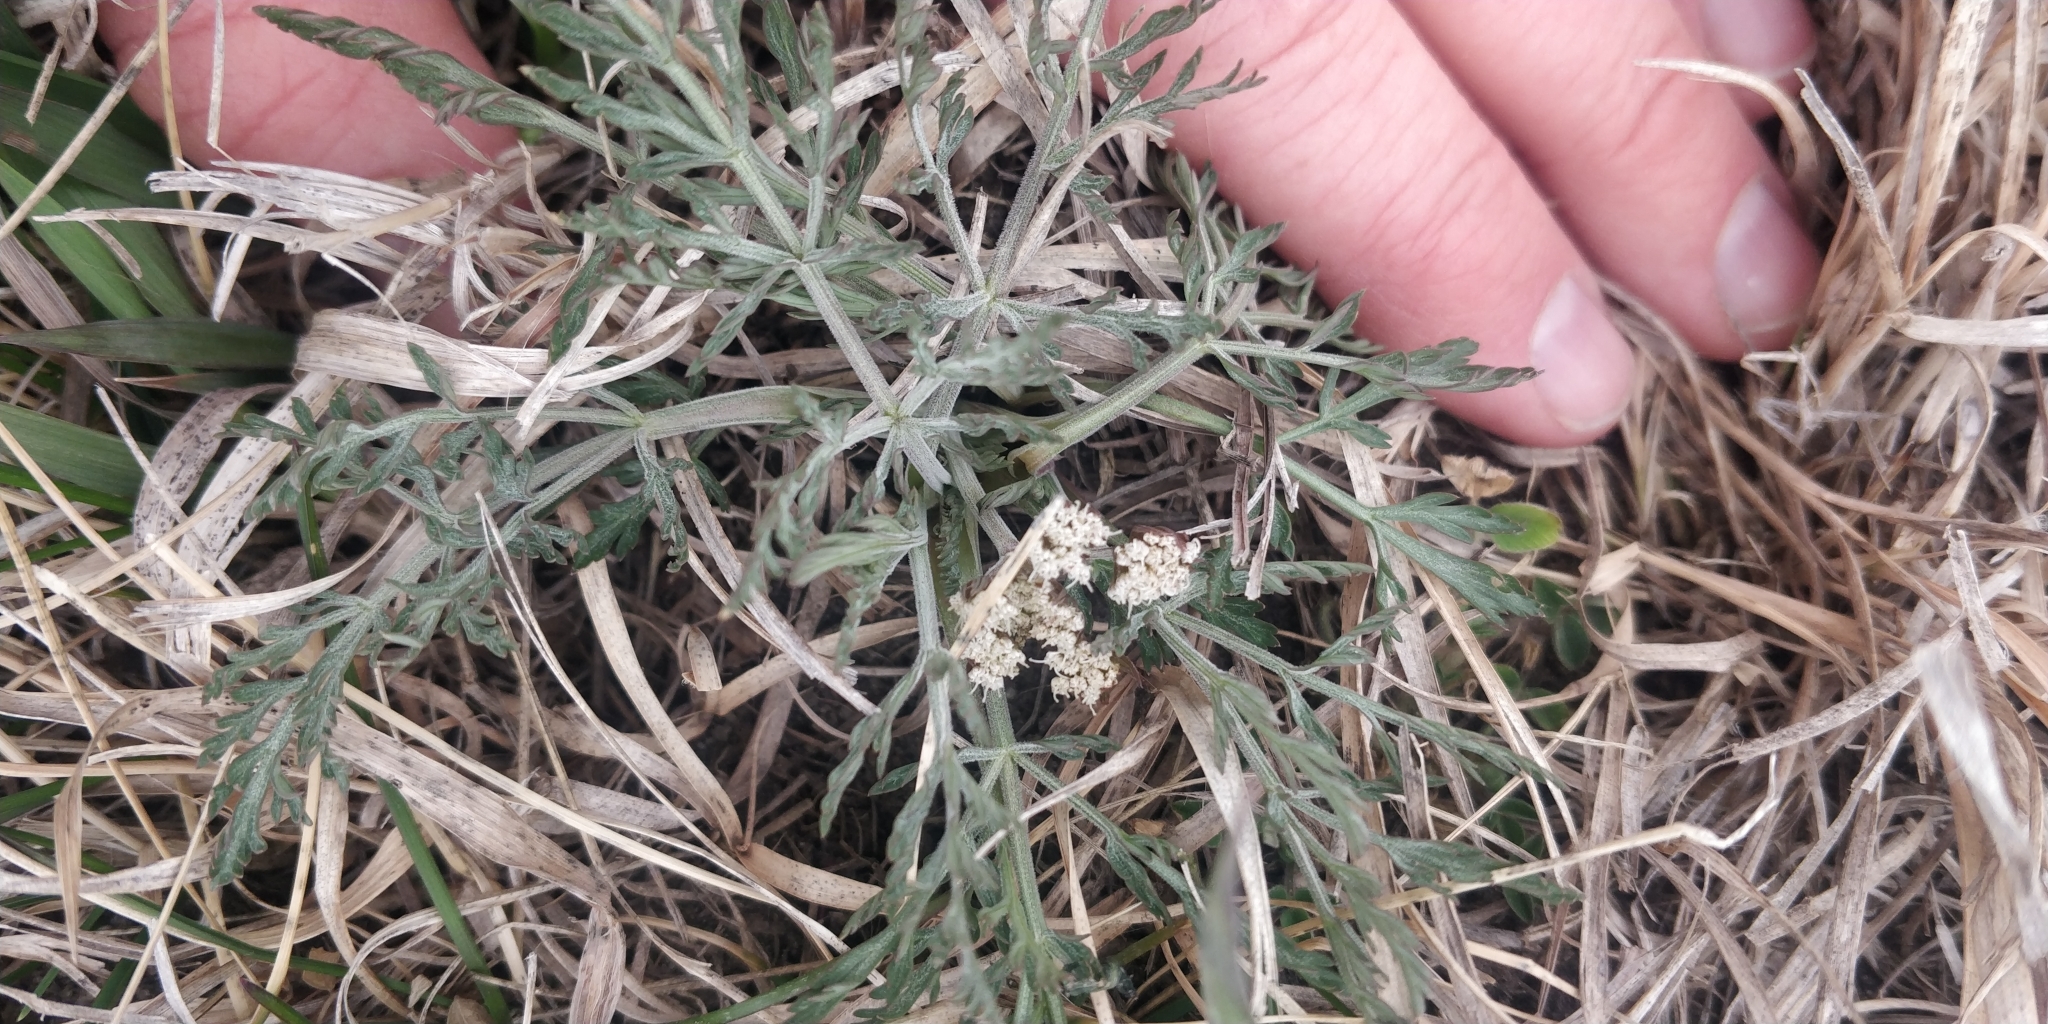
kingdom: Plantae
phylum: Tracheophyta
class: Magnoliopsida
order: Apiales
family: Apiaceae
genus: Lomatium
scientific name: Lomatium orientale
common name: Eastern cous
